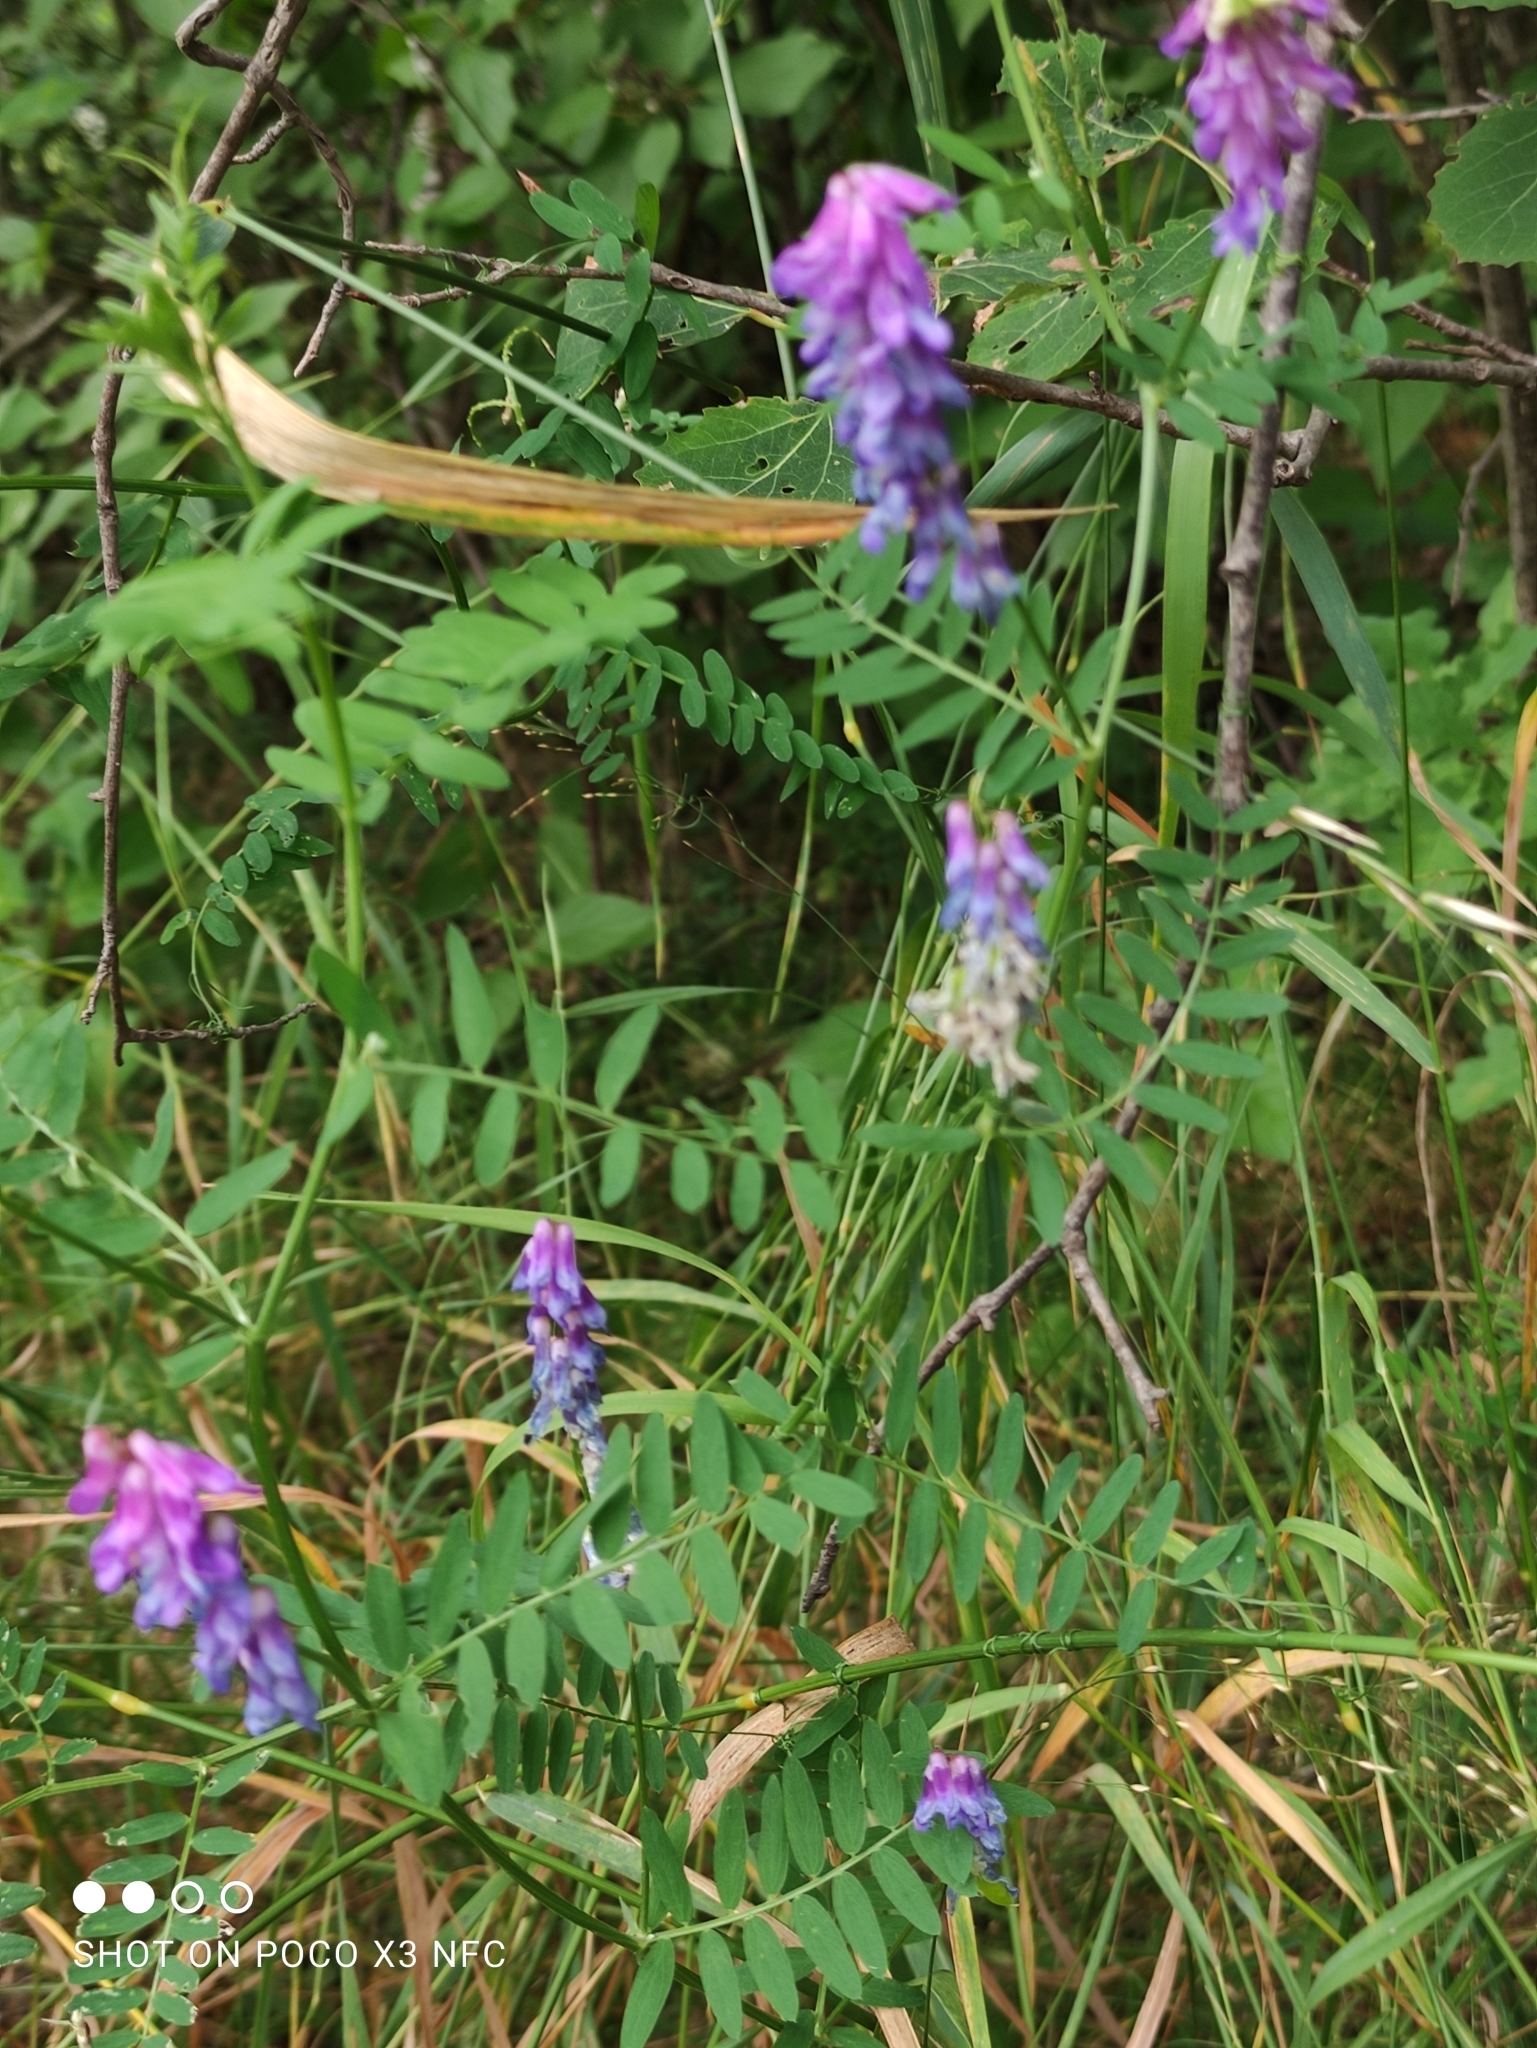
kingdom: Plantae
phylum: Tracheophyta
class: Magnoliopsida
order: Fabales
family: Fabaceae
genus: Vicia
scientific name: Vicia cracca
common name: Bird vetch
